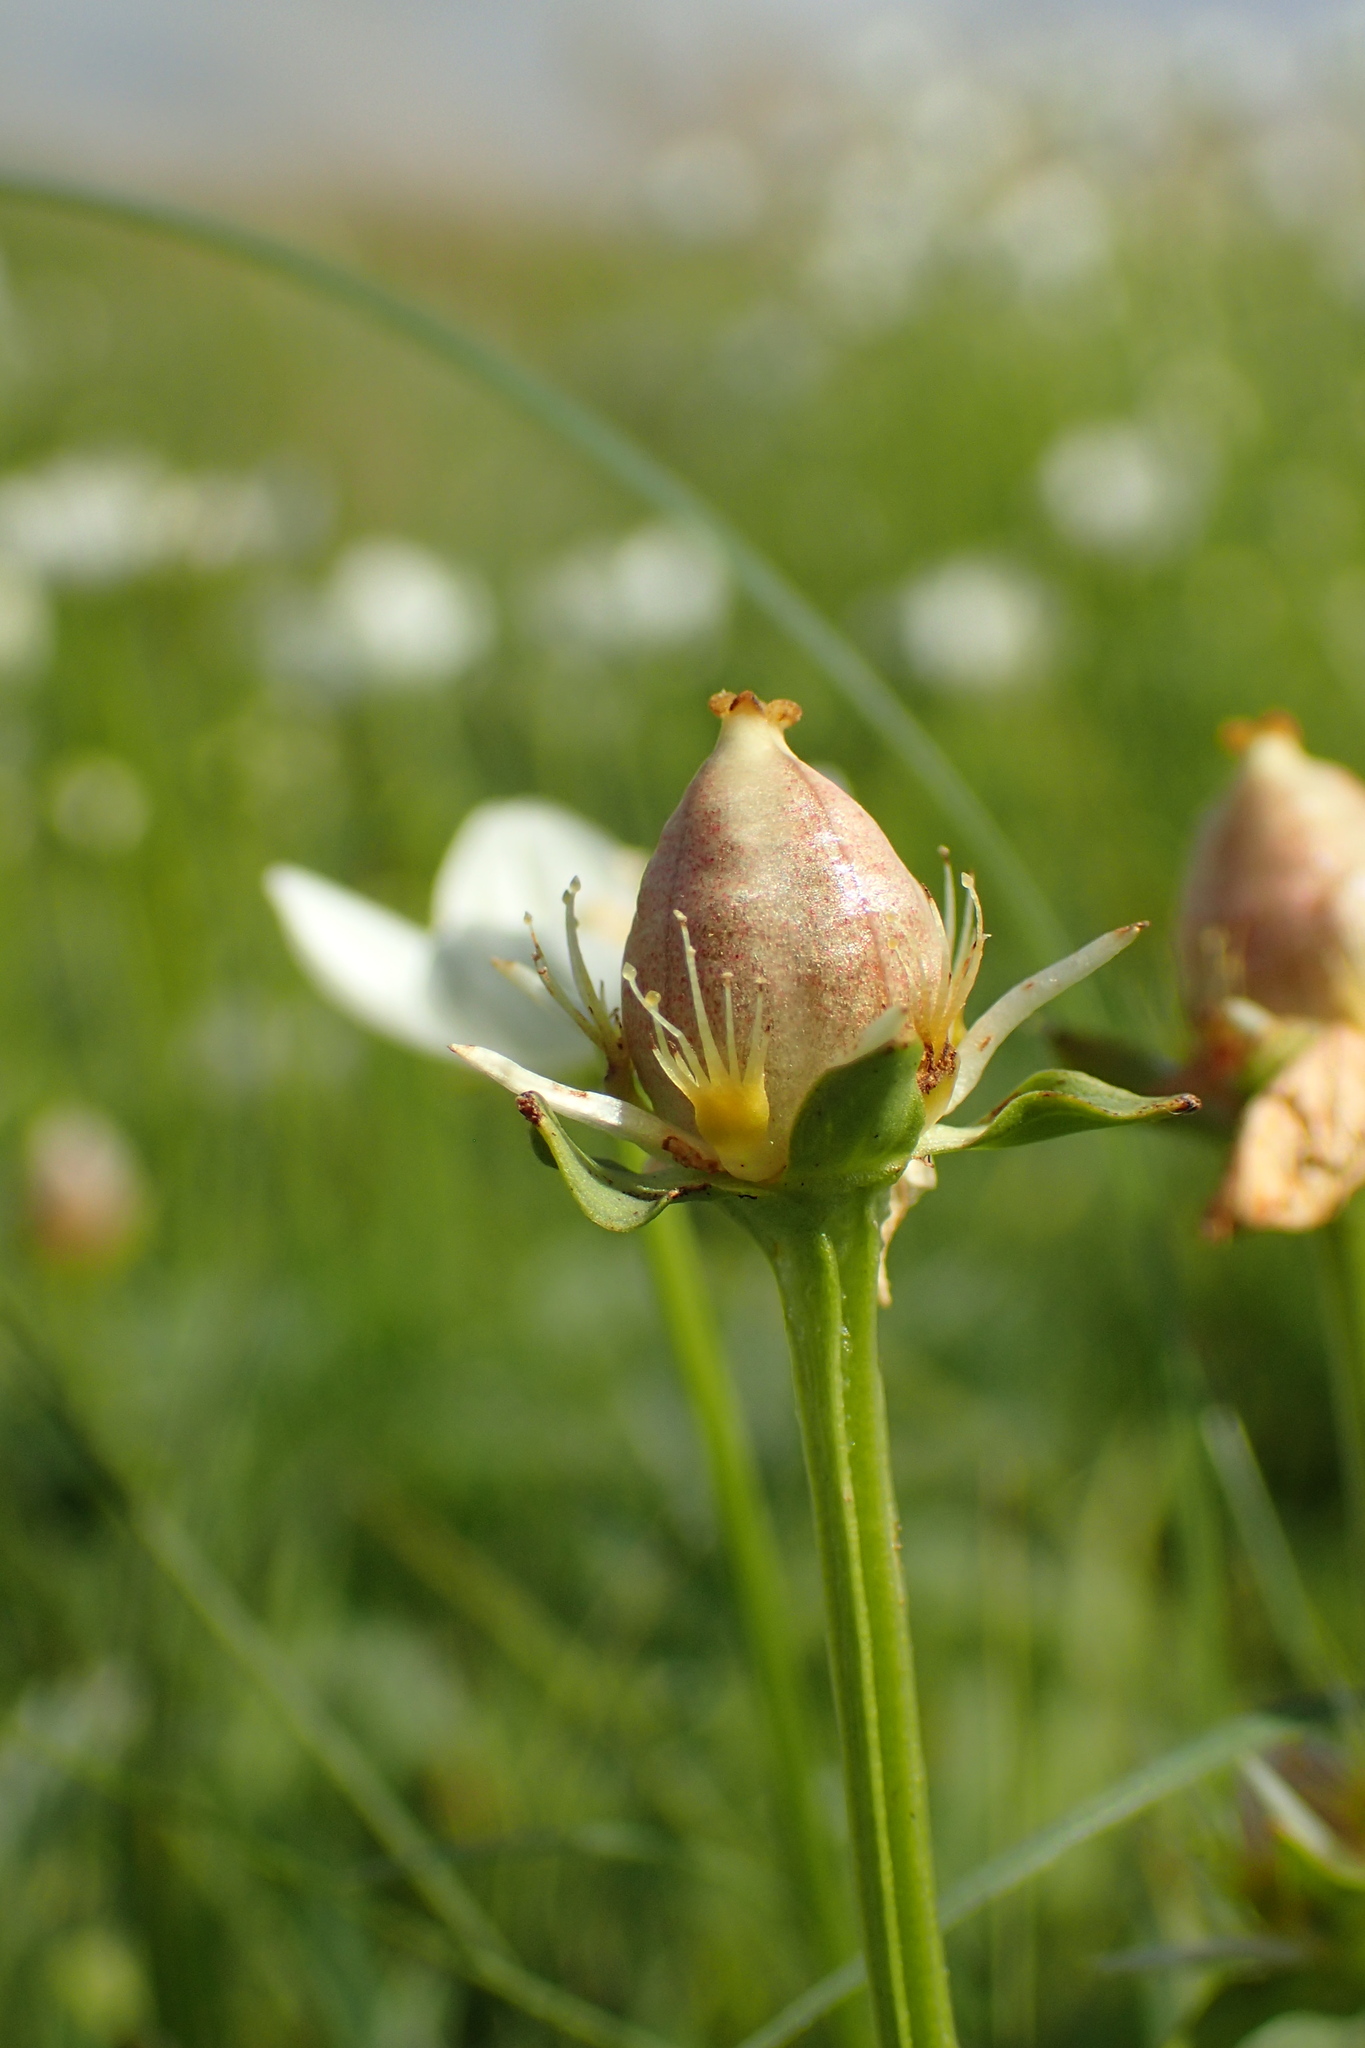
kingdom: Plantae
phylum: Tracheophyta
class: Magnoliopsida
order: Celastrales
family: Parnassiaceae
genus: Parnassia
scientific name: Parnassia palustris
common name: Grass-of-parnassus
